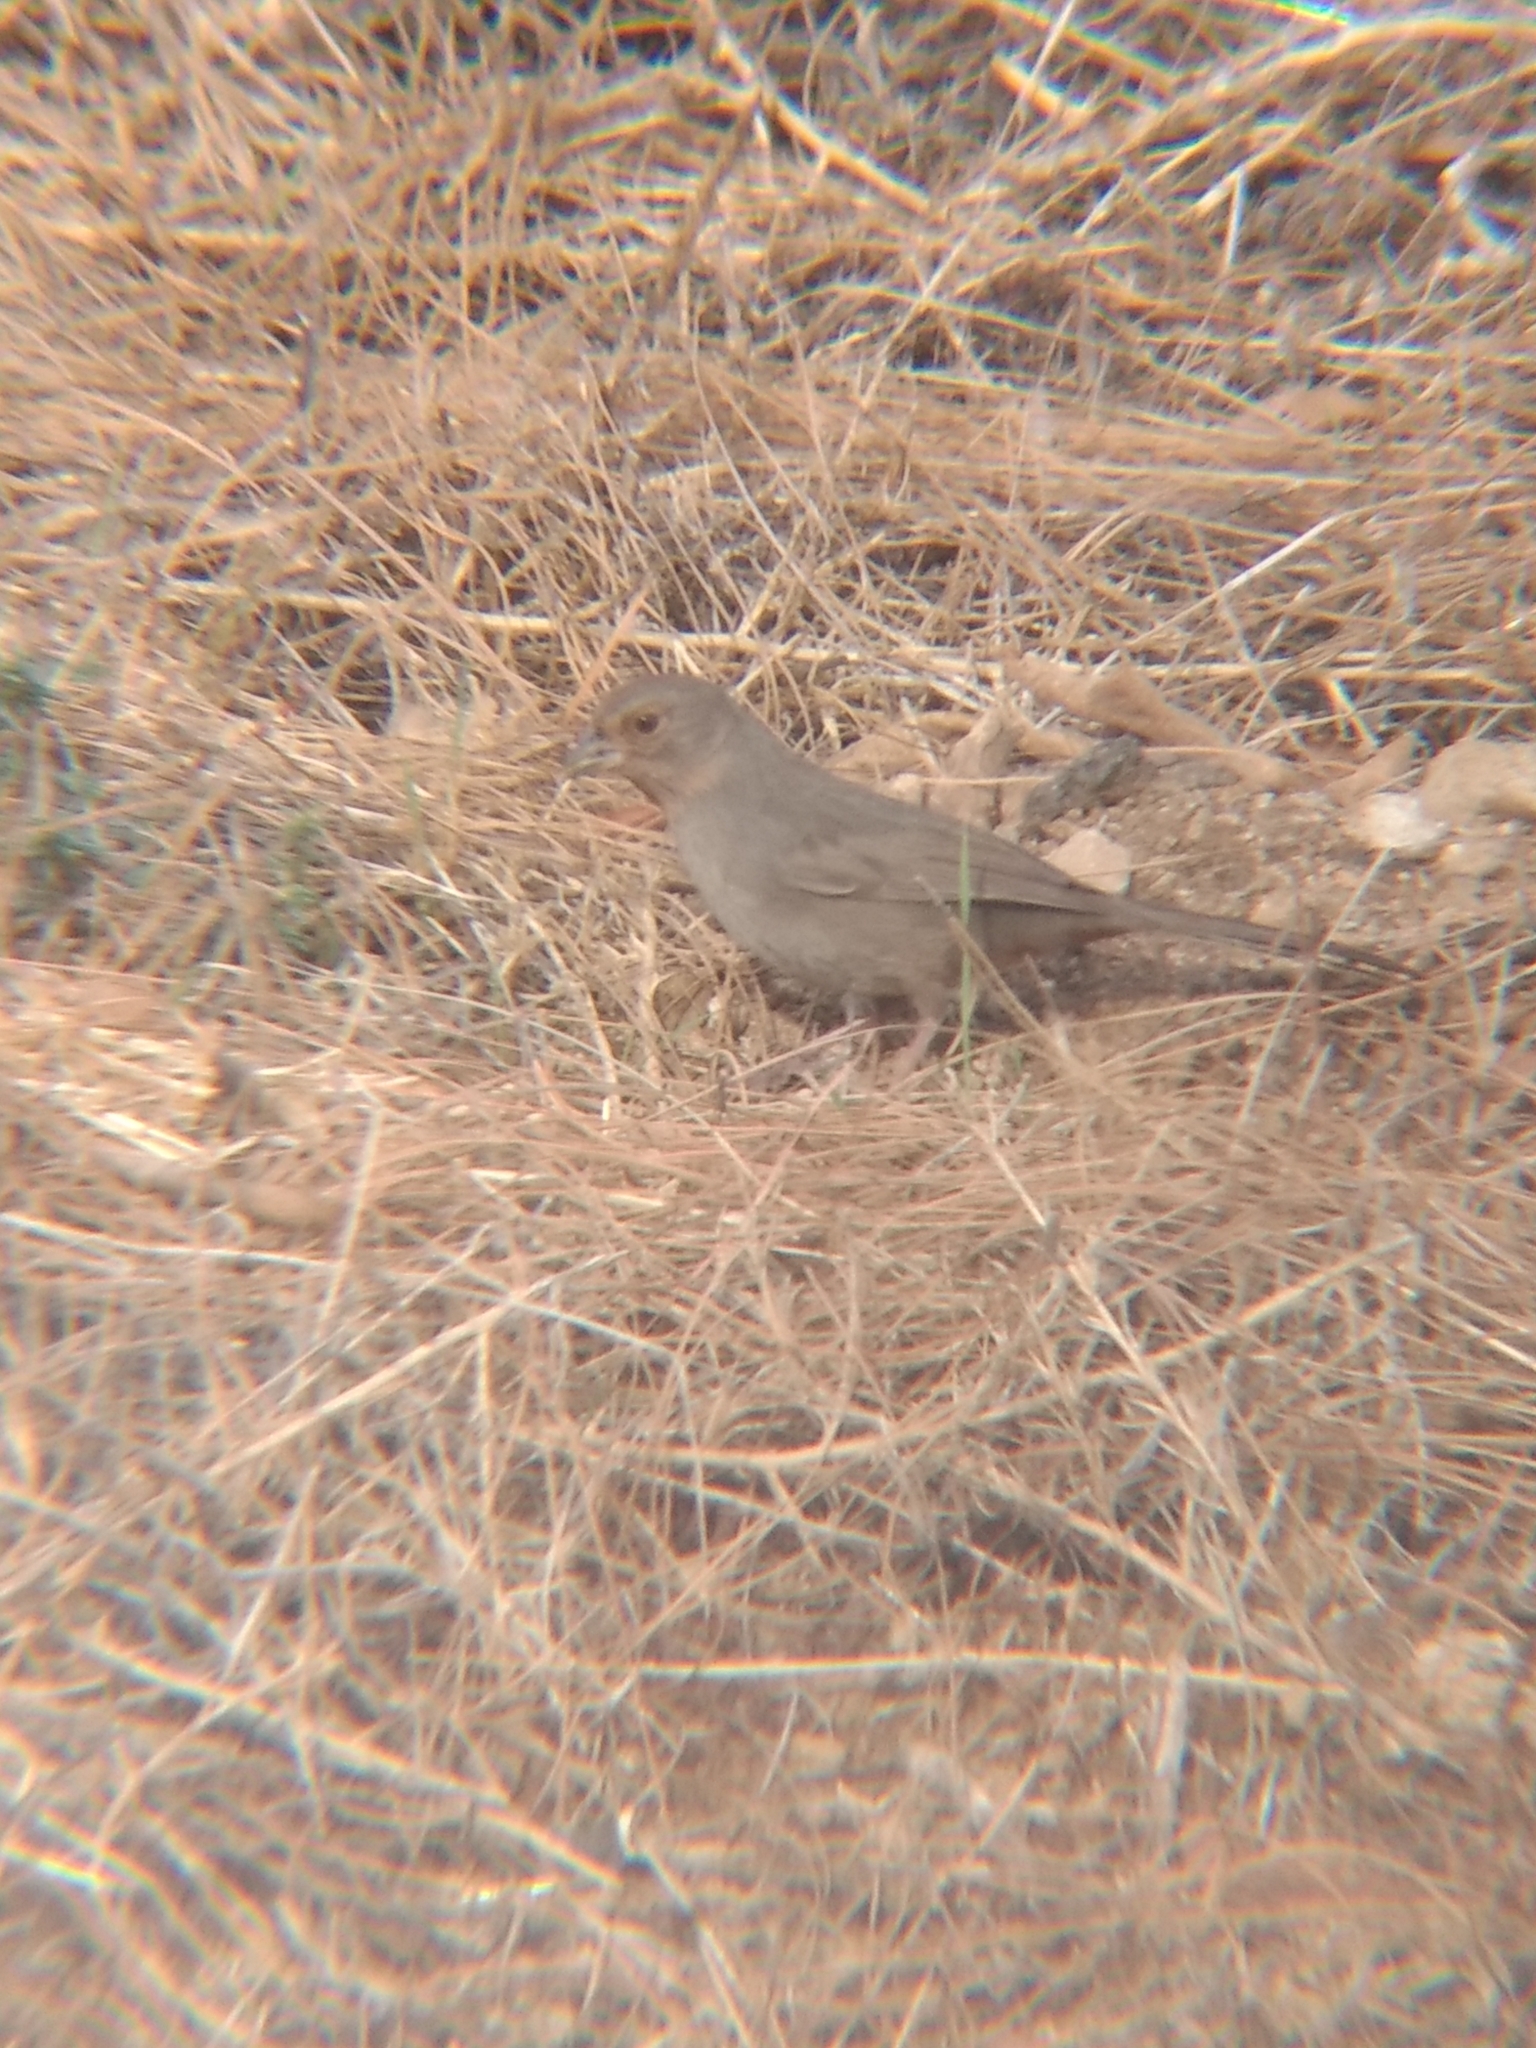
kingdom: Animalia
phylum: Chordata
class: Aves
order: Passeriformes
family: Passerellidae
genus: Melozone
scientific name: Melozone crissalis
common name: California towhee
